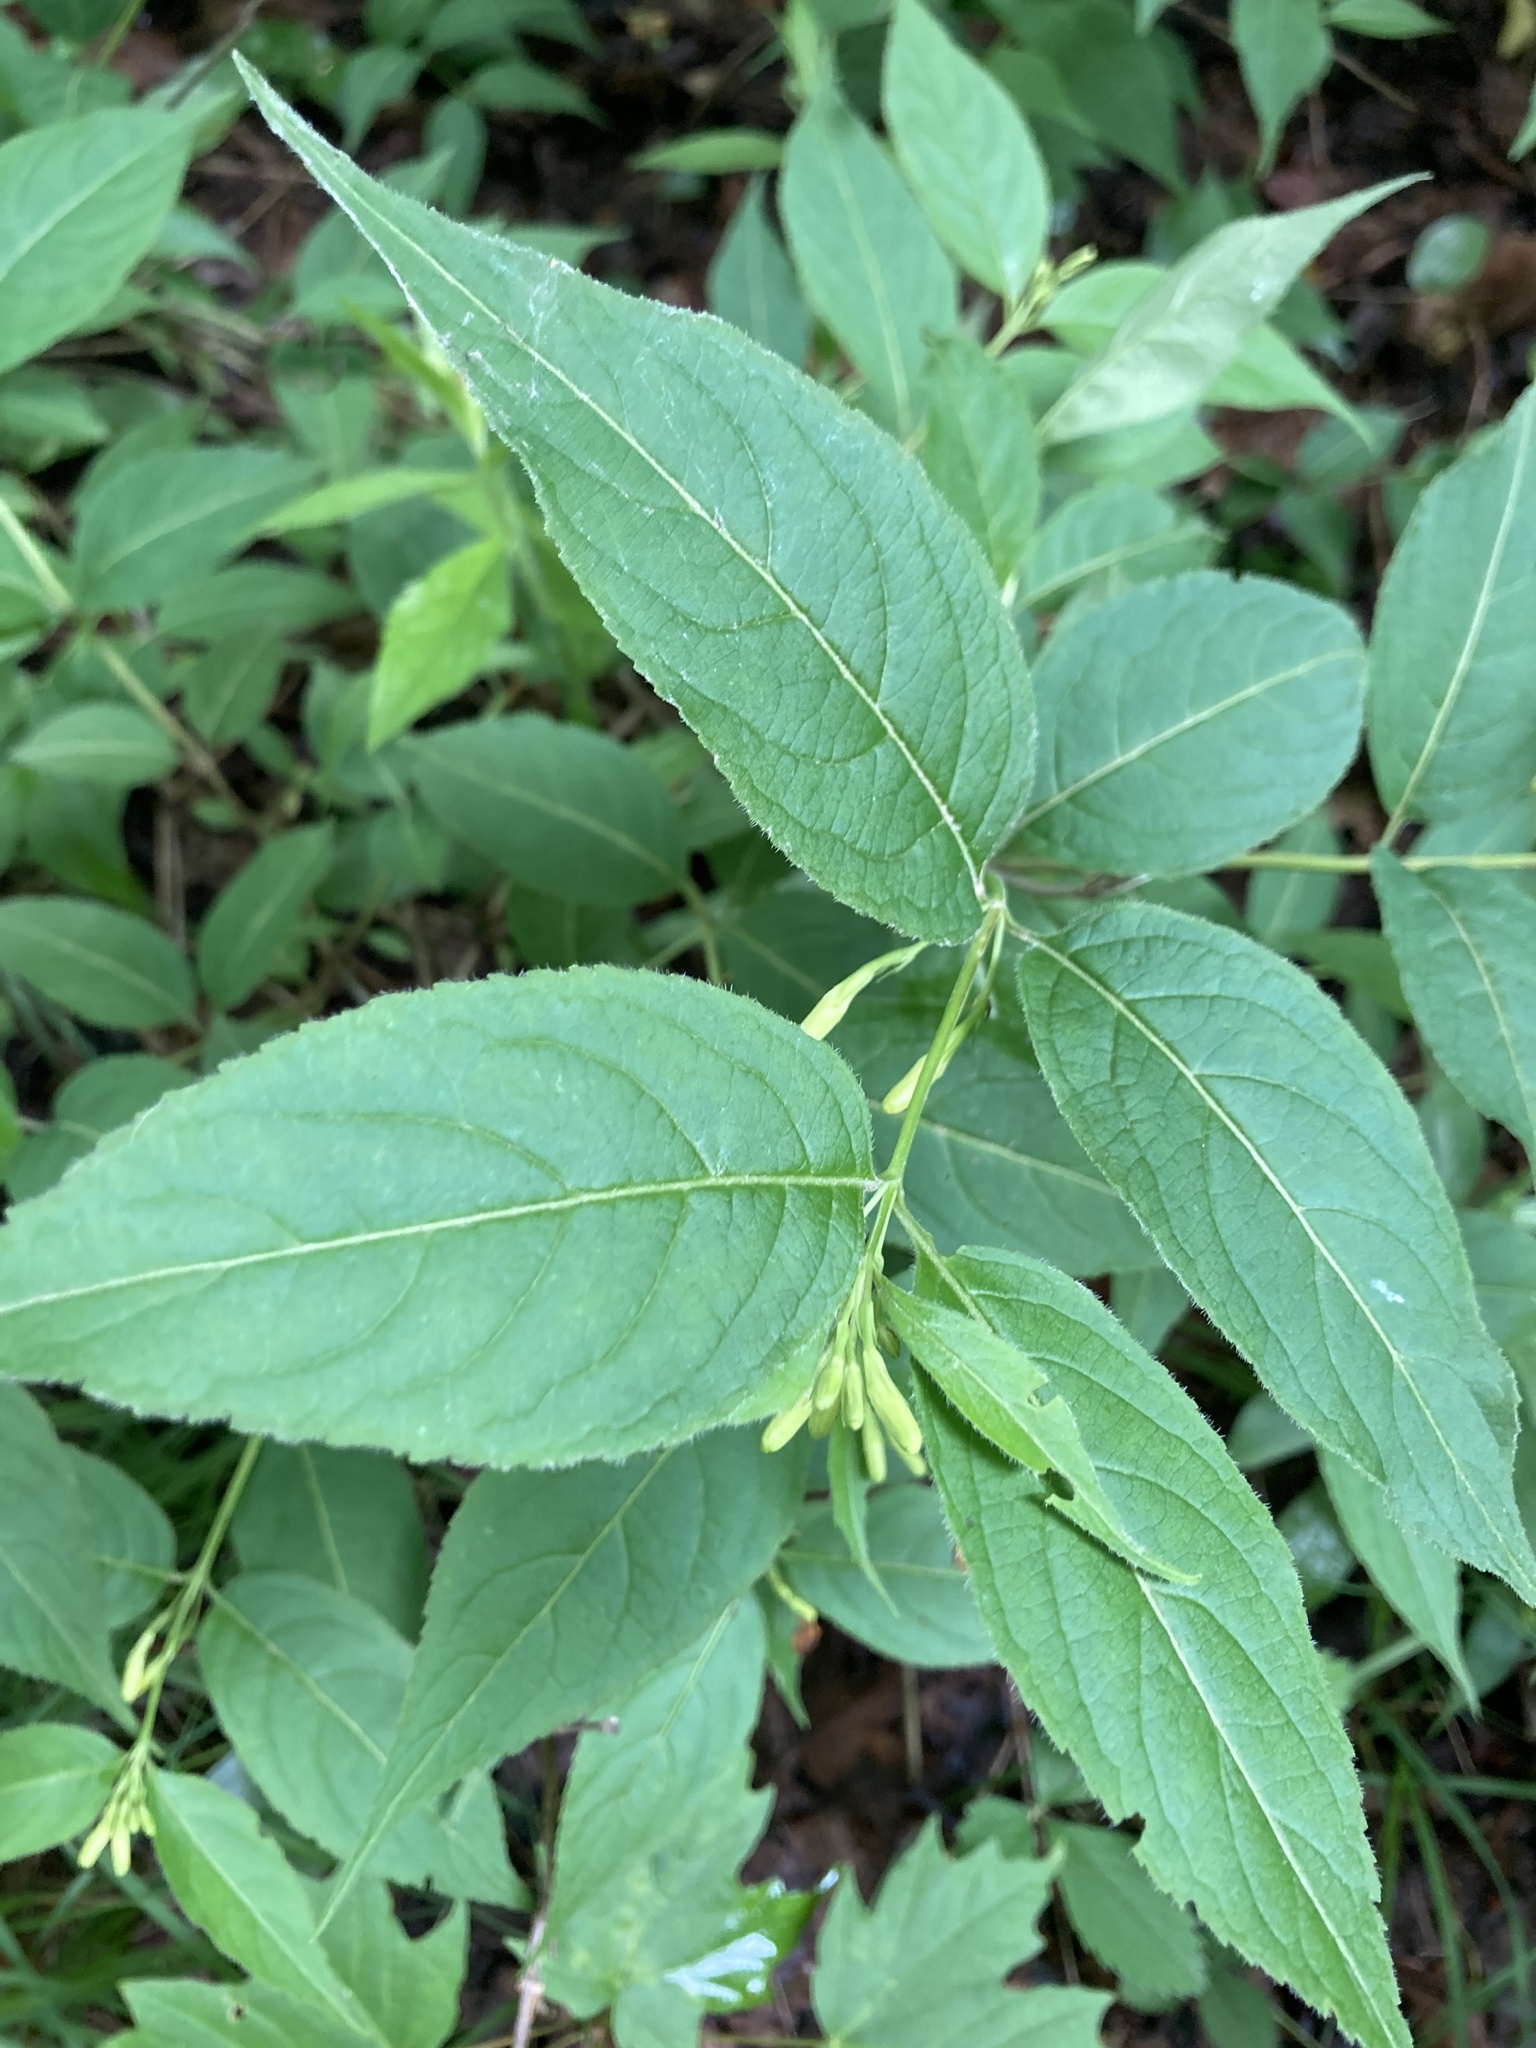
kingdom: Plantae
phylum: Tracheophyta
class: Magnoliopsida
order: Dipsacales
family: Caprifoliaceae
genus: Diervilla
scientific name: Diervilla lonicera
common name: Bush-honeysuckle
